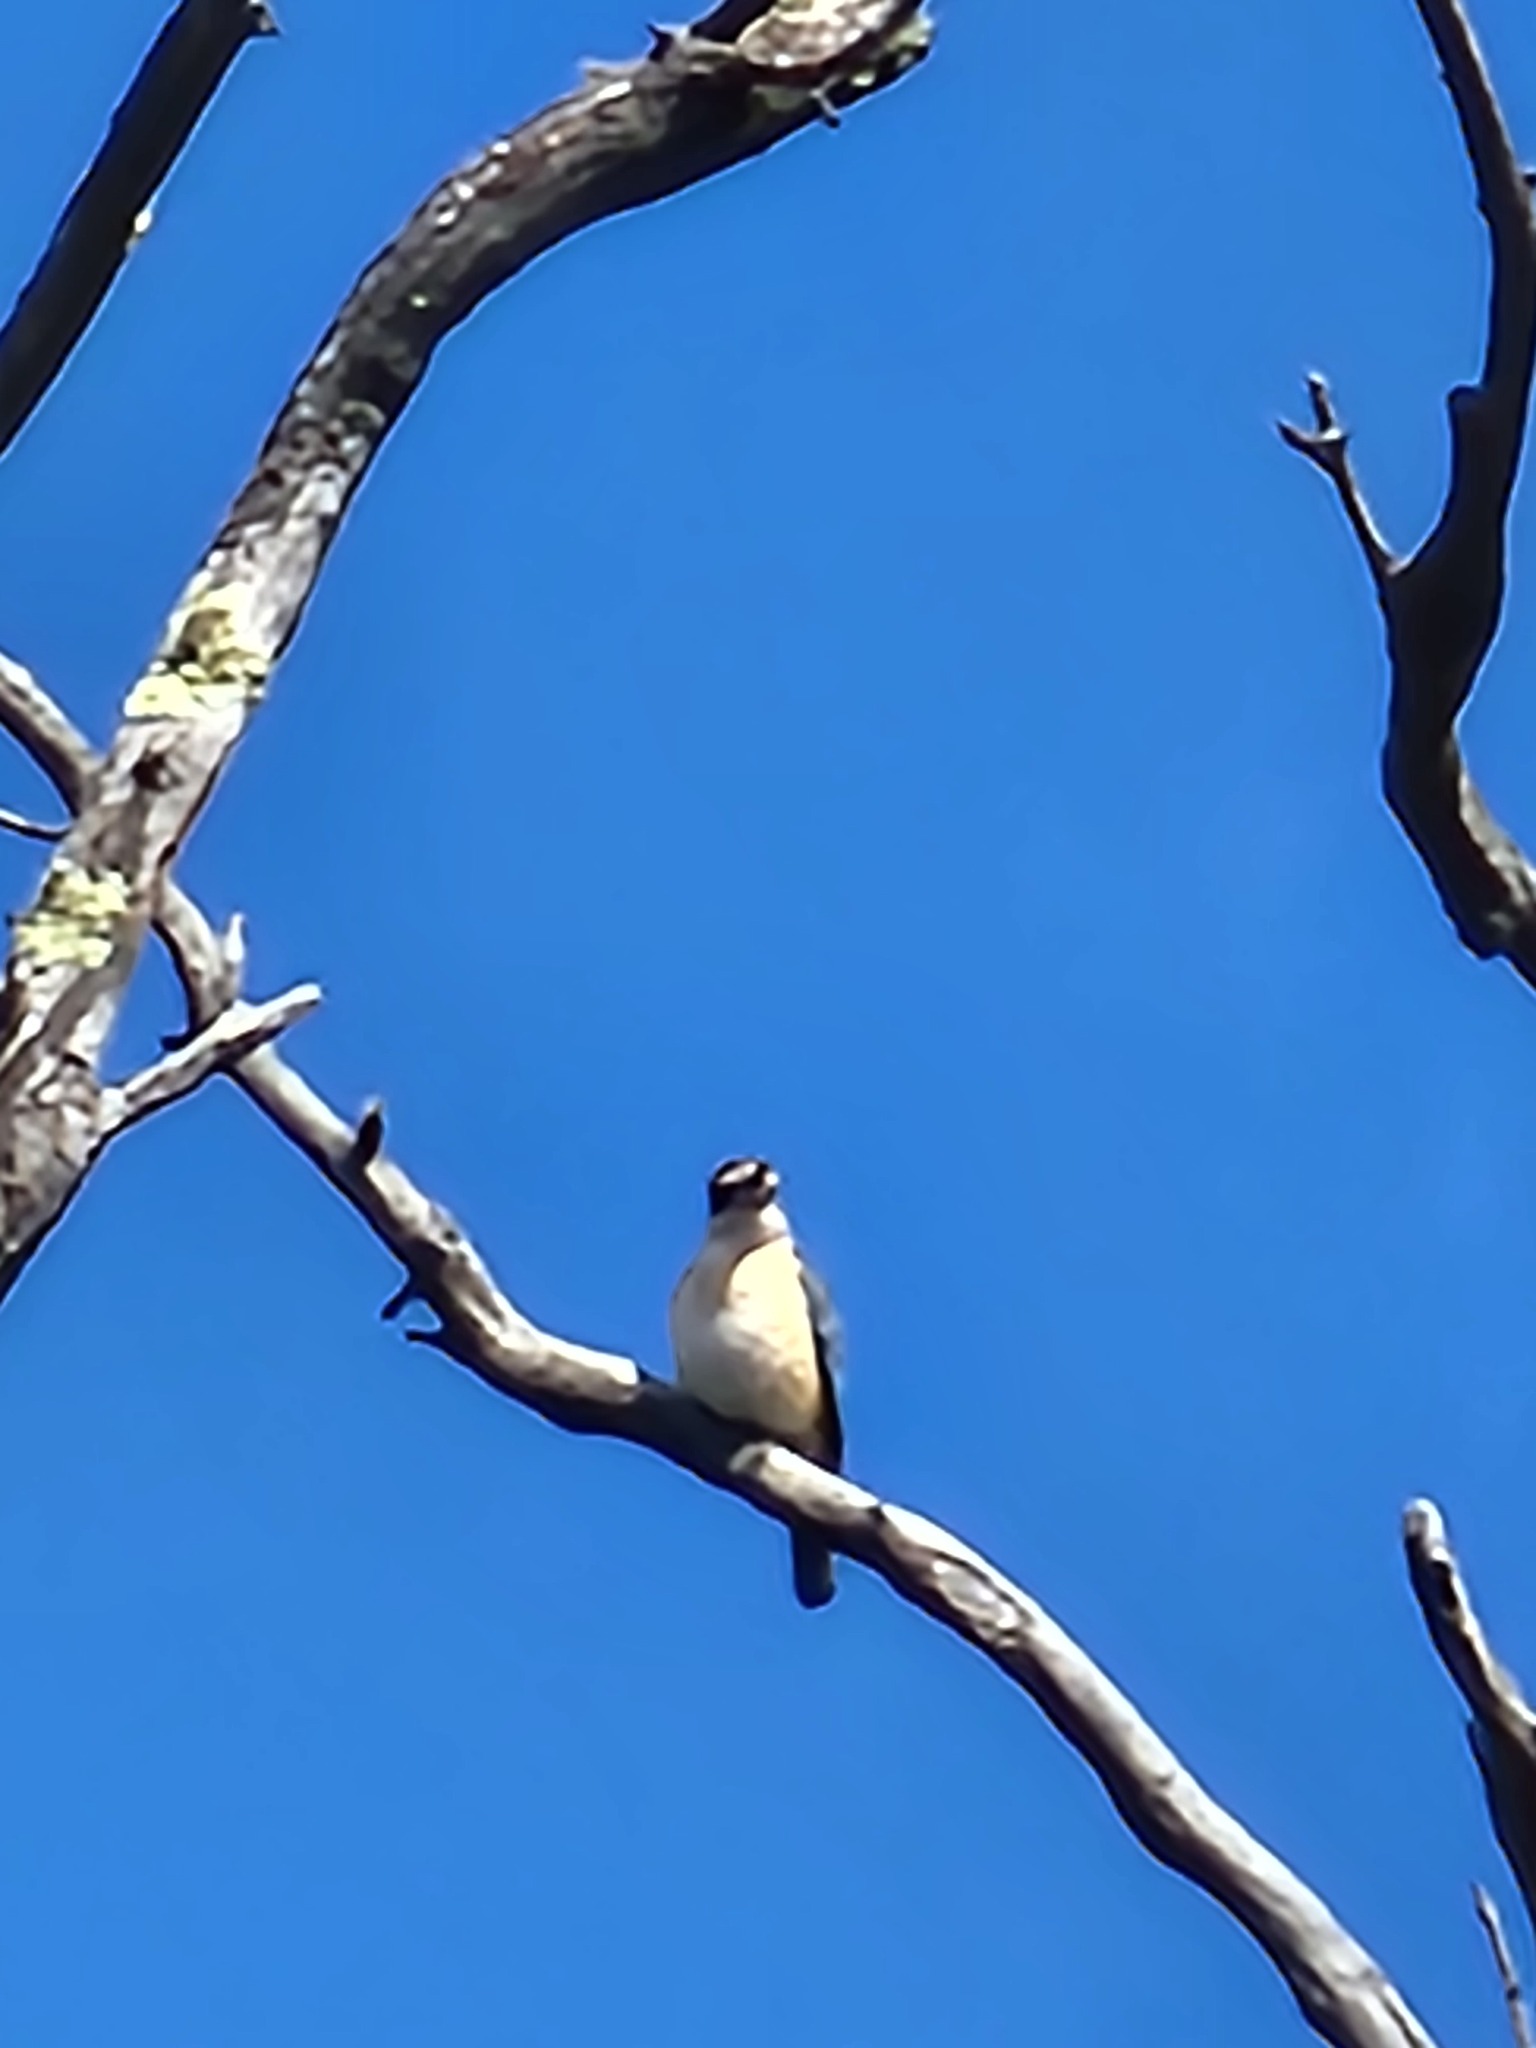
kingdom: Animalia
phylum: Chordata
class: Aves
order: Coraciiformes
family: Alcedinidae
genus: Todiramphus
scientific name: Todiramphus sanctus
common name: Sacred kingfisher
